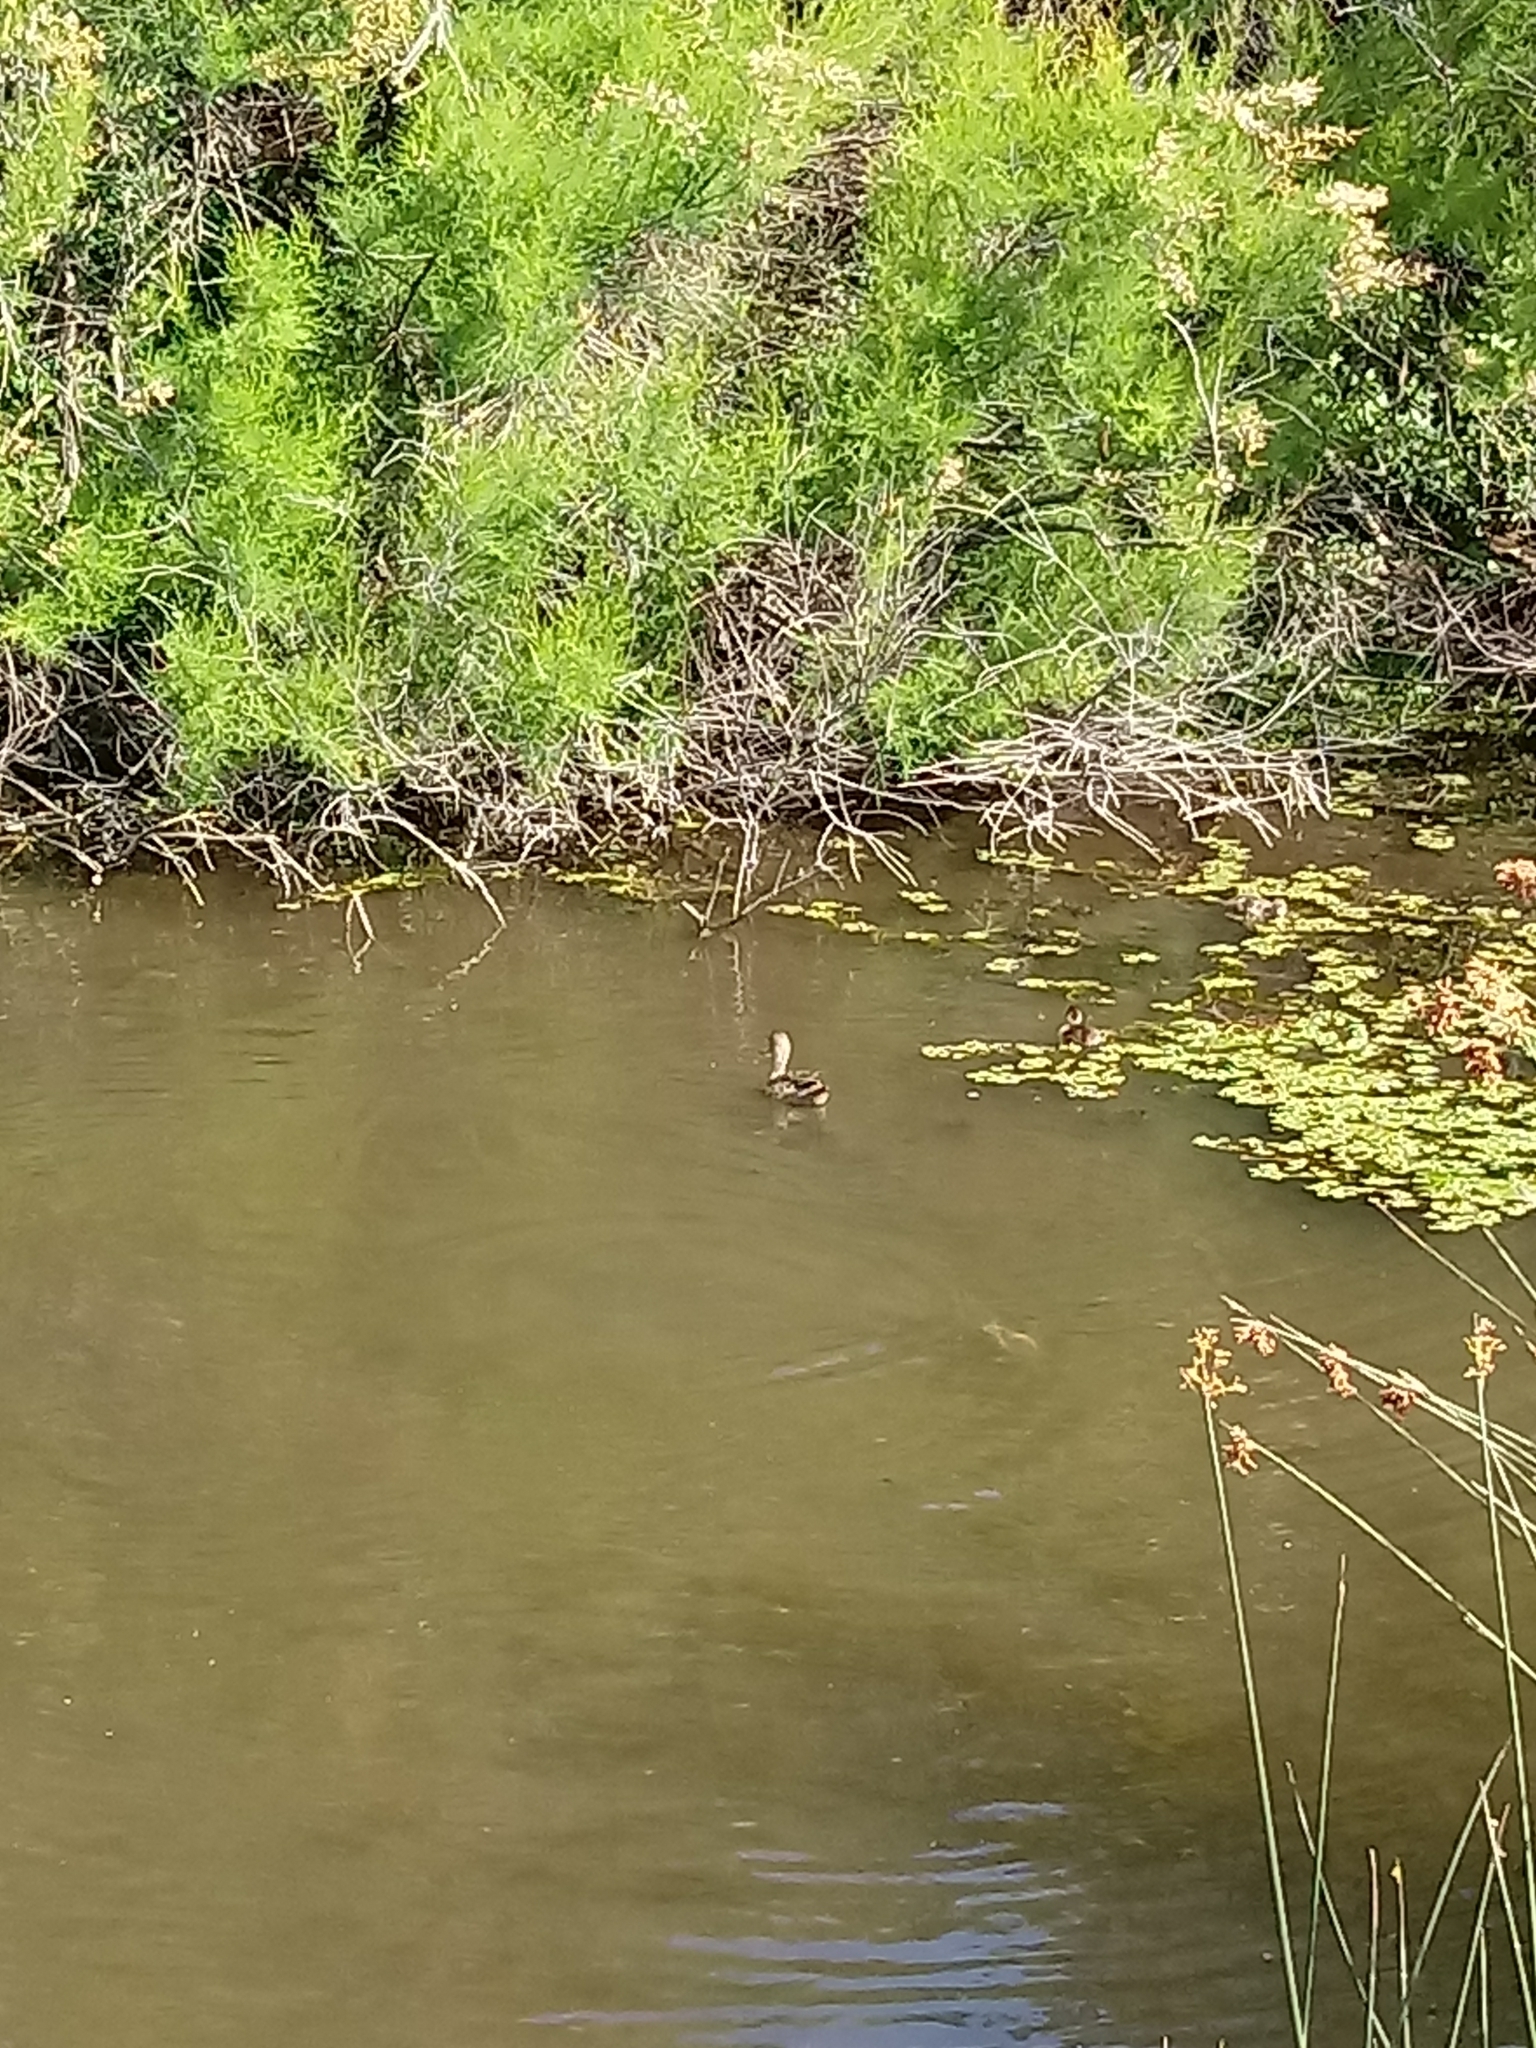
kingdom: Animalia
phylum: Chordata
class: Aves
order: Anseriformes
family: Anatidae
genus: Anas
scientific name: Anas georgica
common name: Yellow-billed pintail
